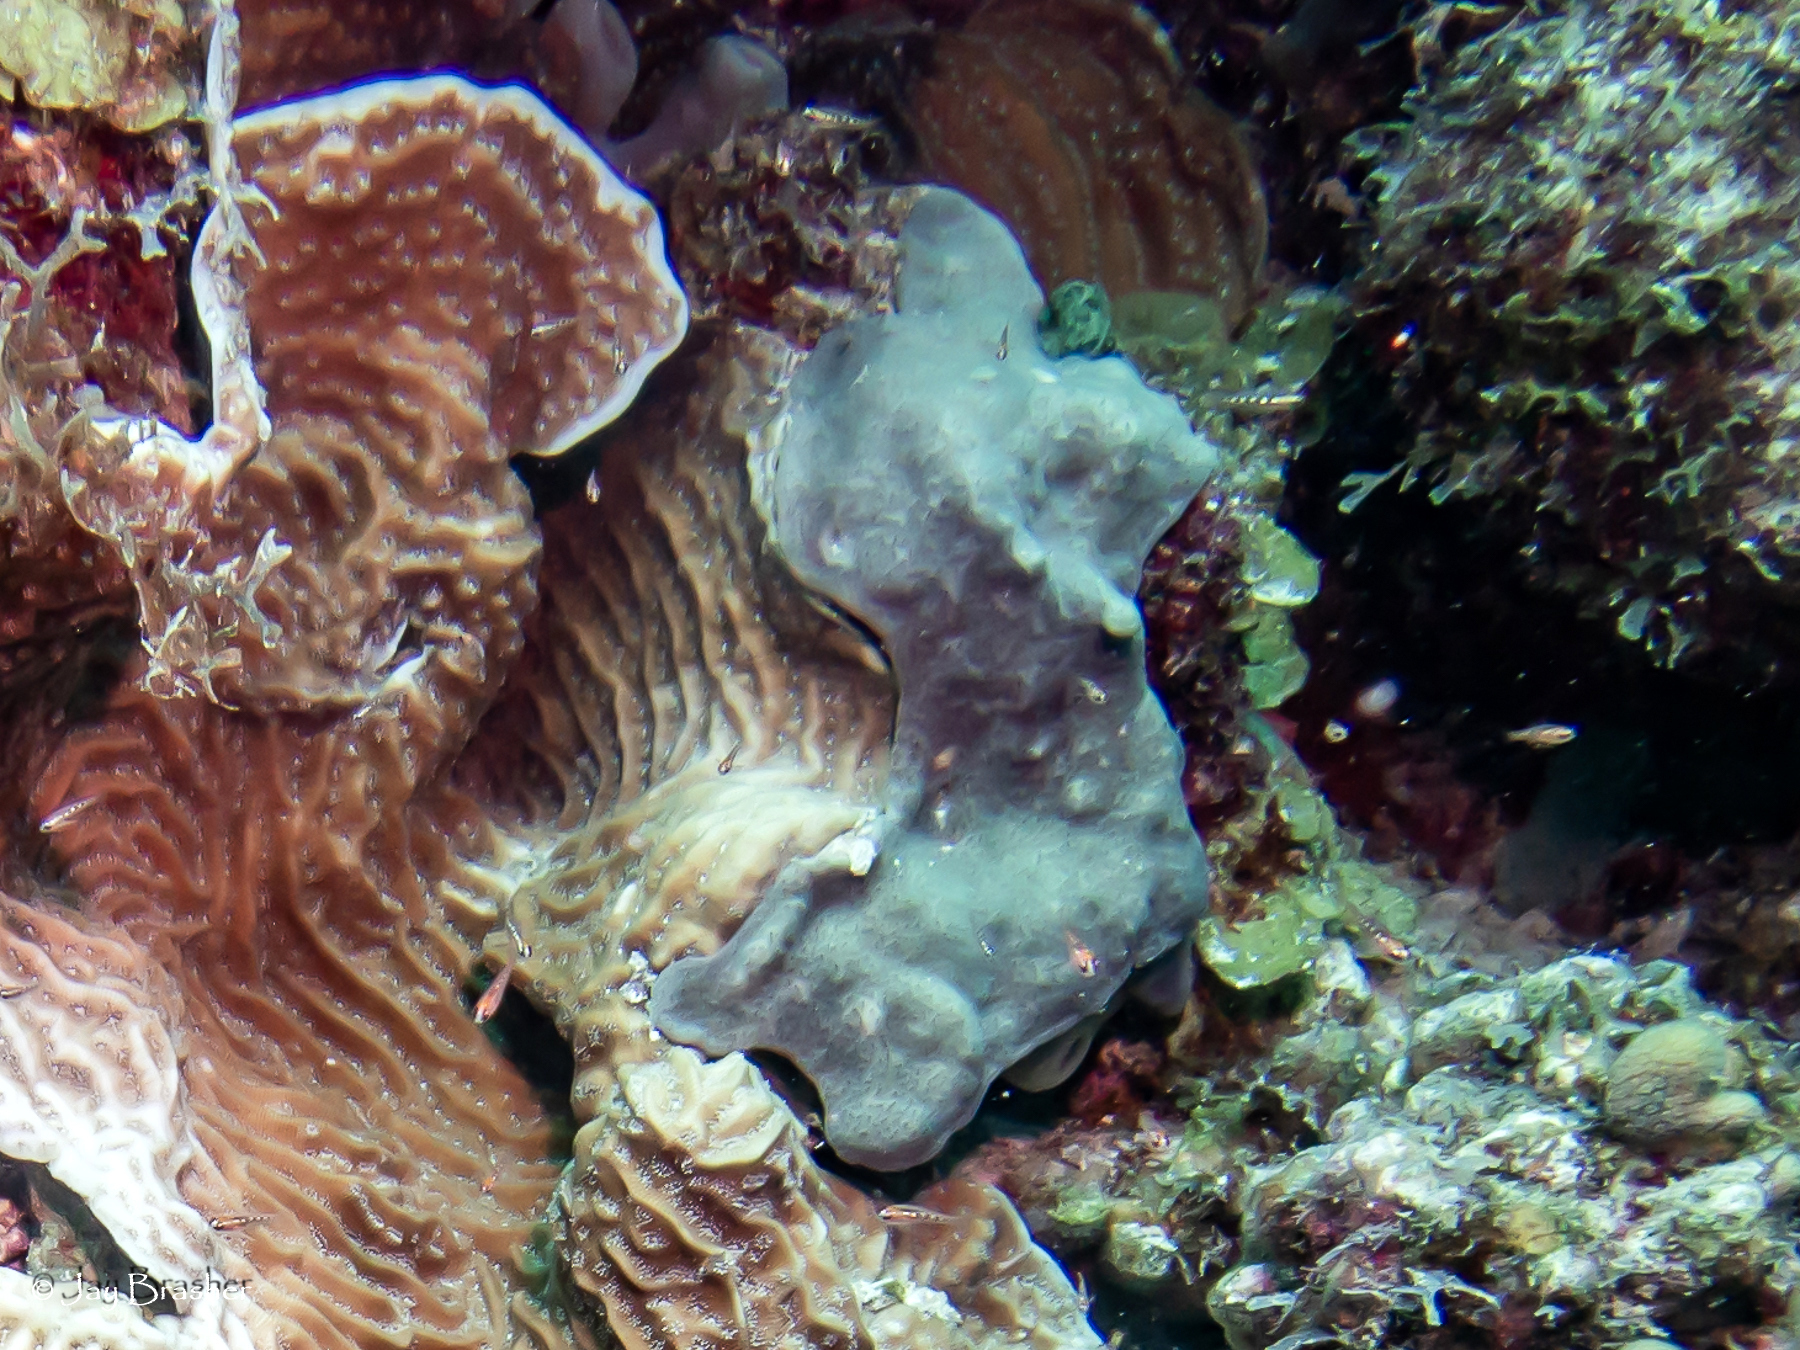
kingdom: Animalia
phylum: Chordata
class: Ascidiacea
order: Aplousobranchia
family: Didemnidae
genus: Trididemnum
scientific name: Trididemnum solidum
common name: Overgrowing mat tunicate
